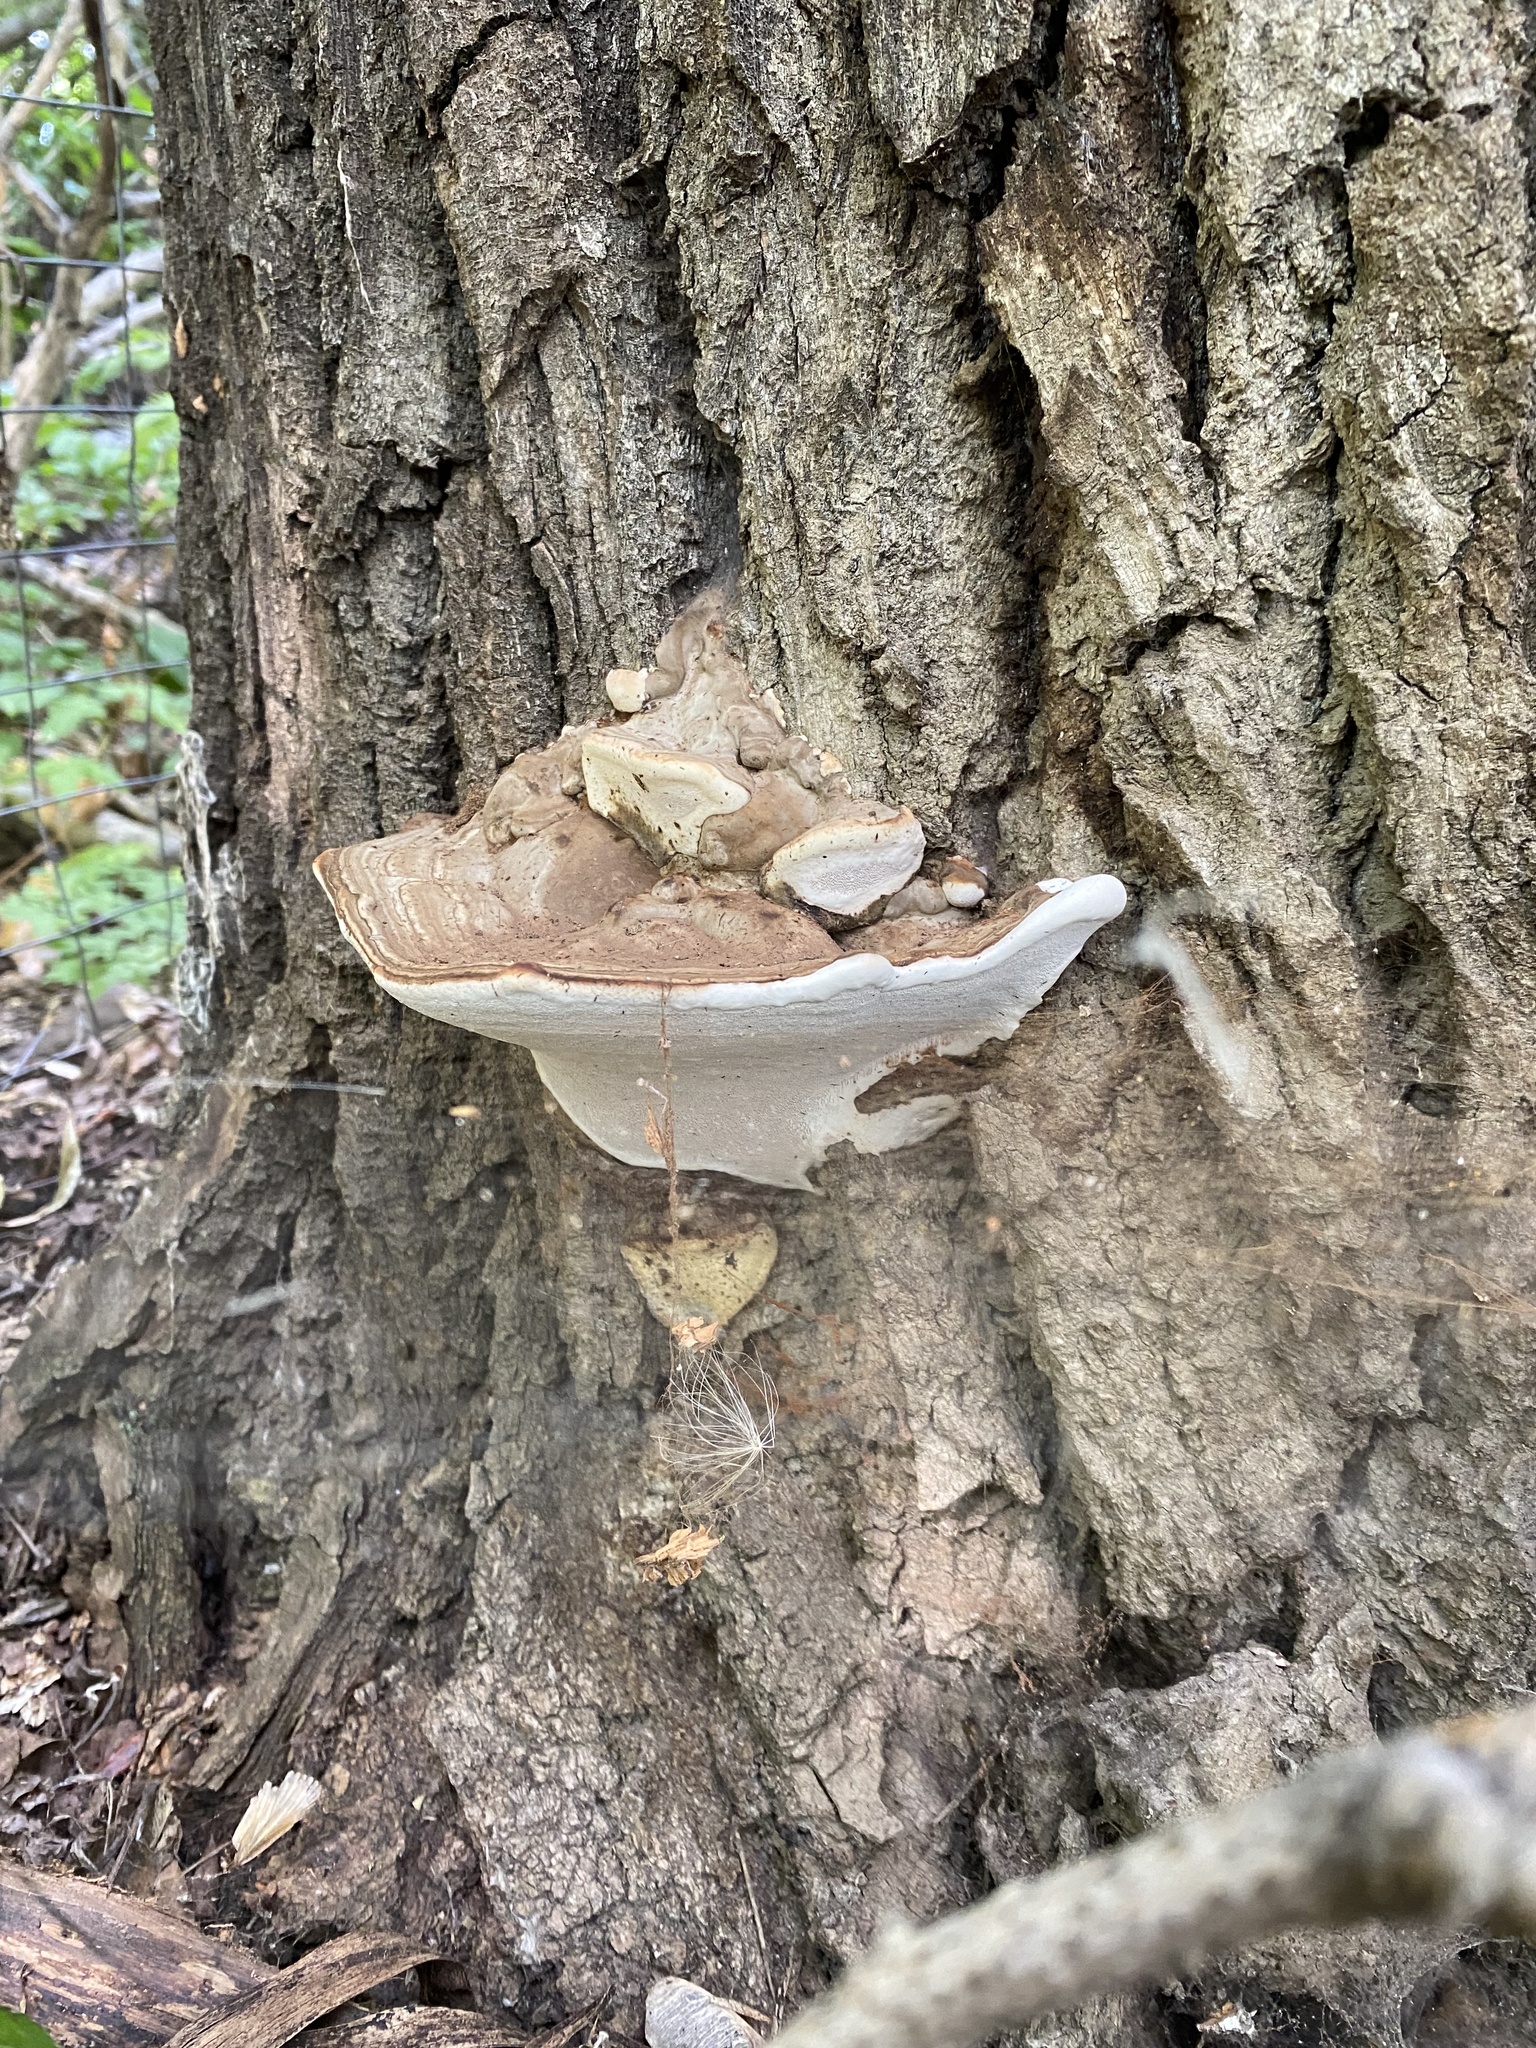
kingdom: Fungi
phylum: Basidiomycota
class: Agaricomycetes
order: Polyporales
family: Polyporaceae
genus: Ganoderma
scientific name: Ganoderma applanatum
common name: Artist's bracket
